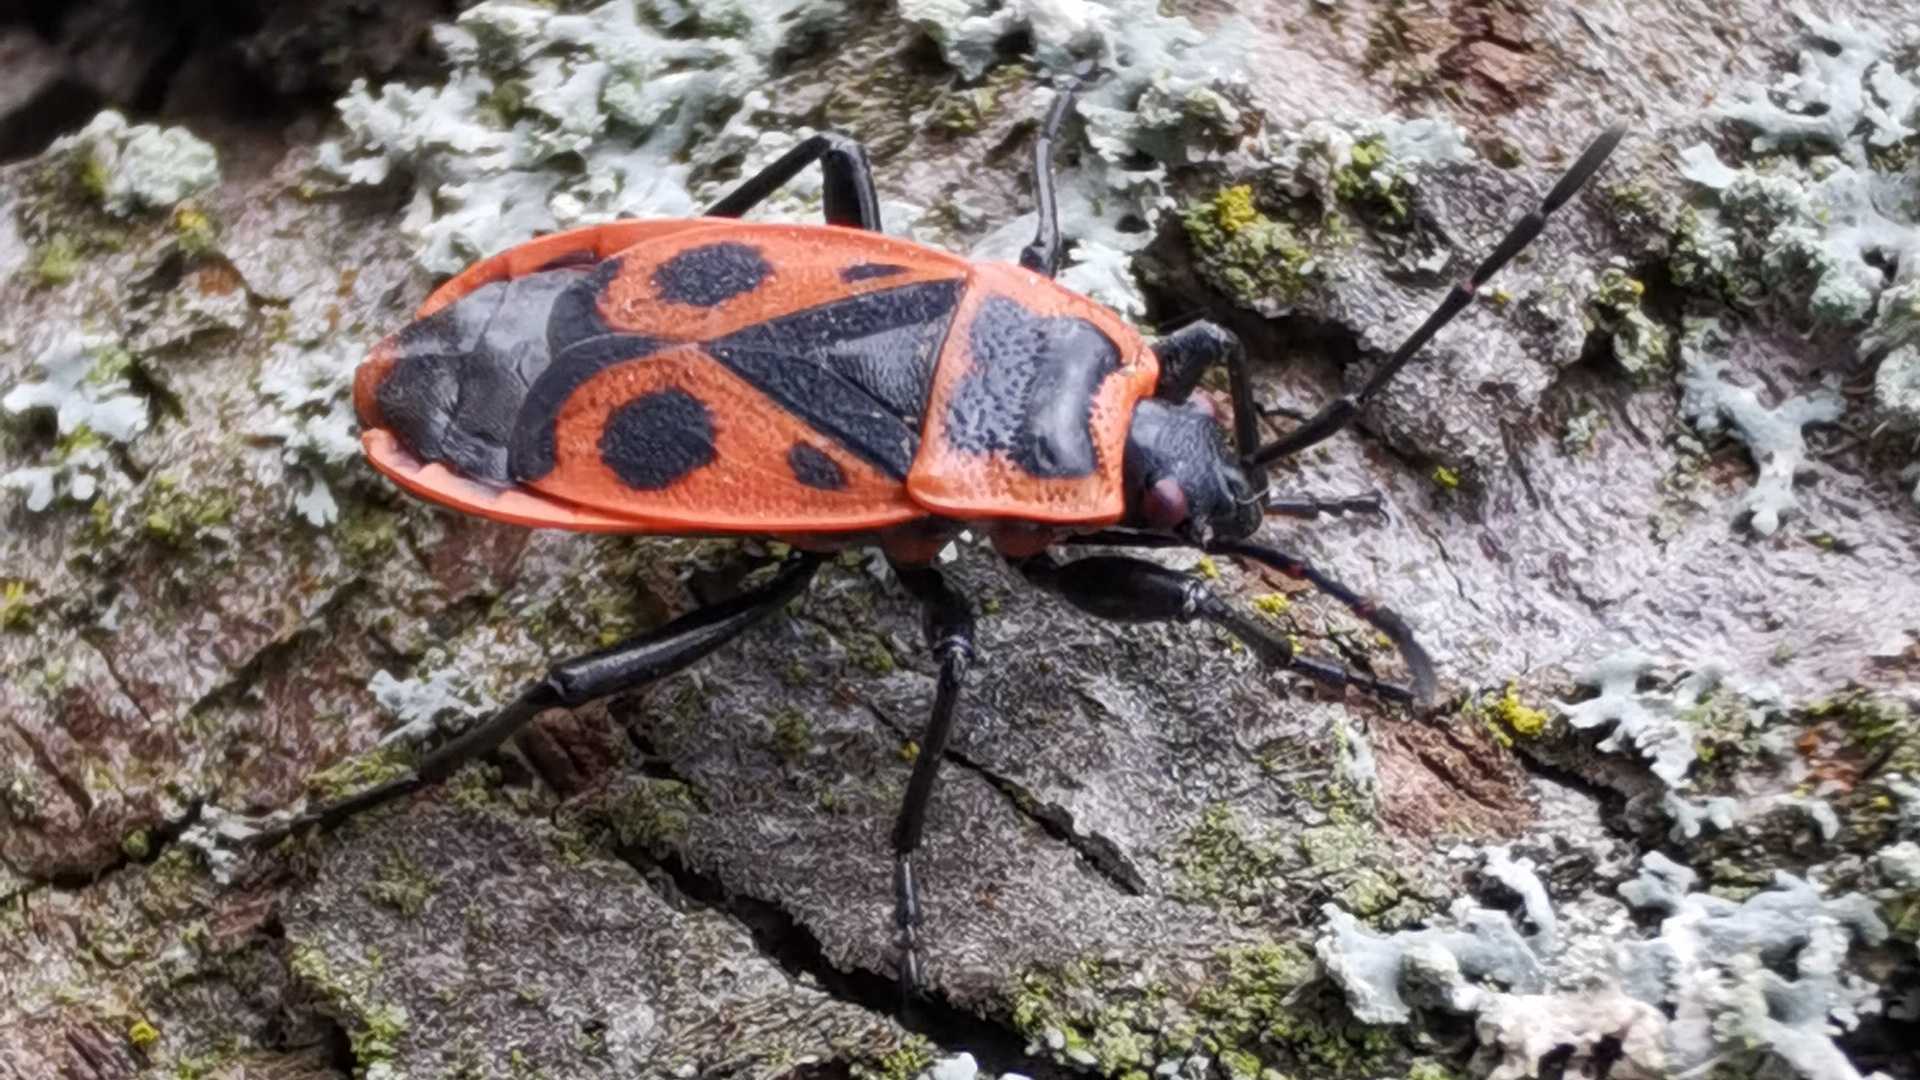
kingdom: Animalia
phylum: Arthropoda
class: Insecta
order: Hemiptera
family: Pyrrhocoridae
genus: Pyrrhocoris
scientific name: Pyrrhocoris apterus
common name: Firebug
